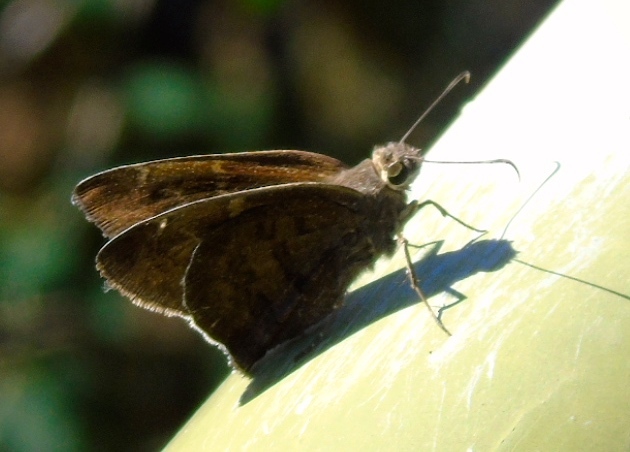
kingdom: Animalia
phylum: Arthropoda
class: Insecta
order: Lepidoptera
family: Hesperiidae
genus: Achalarus
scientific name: Achalarus Murgaria jalapus
